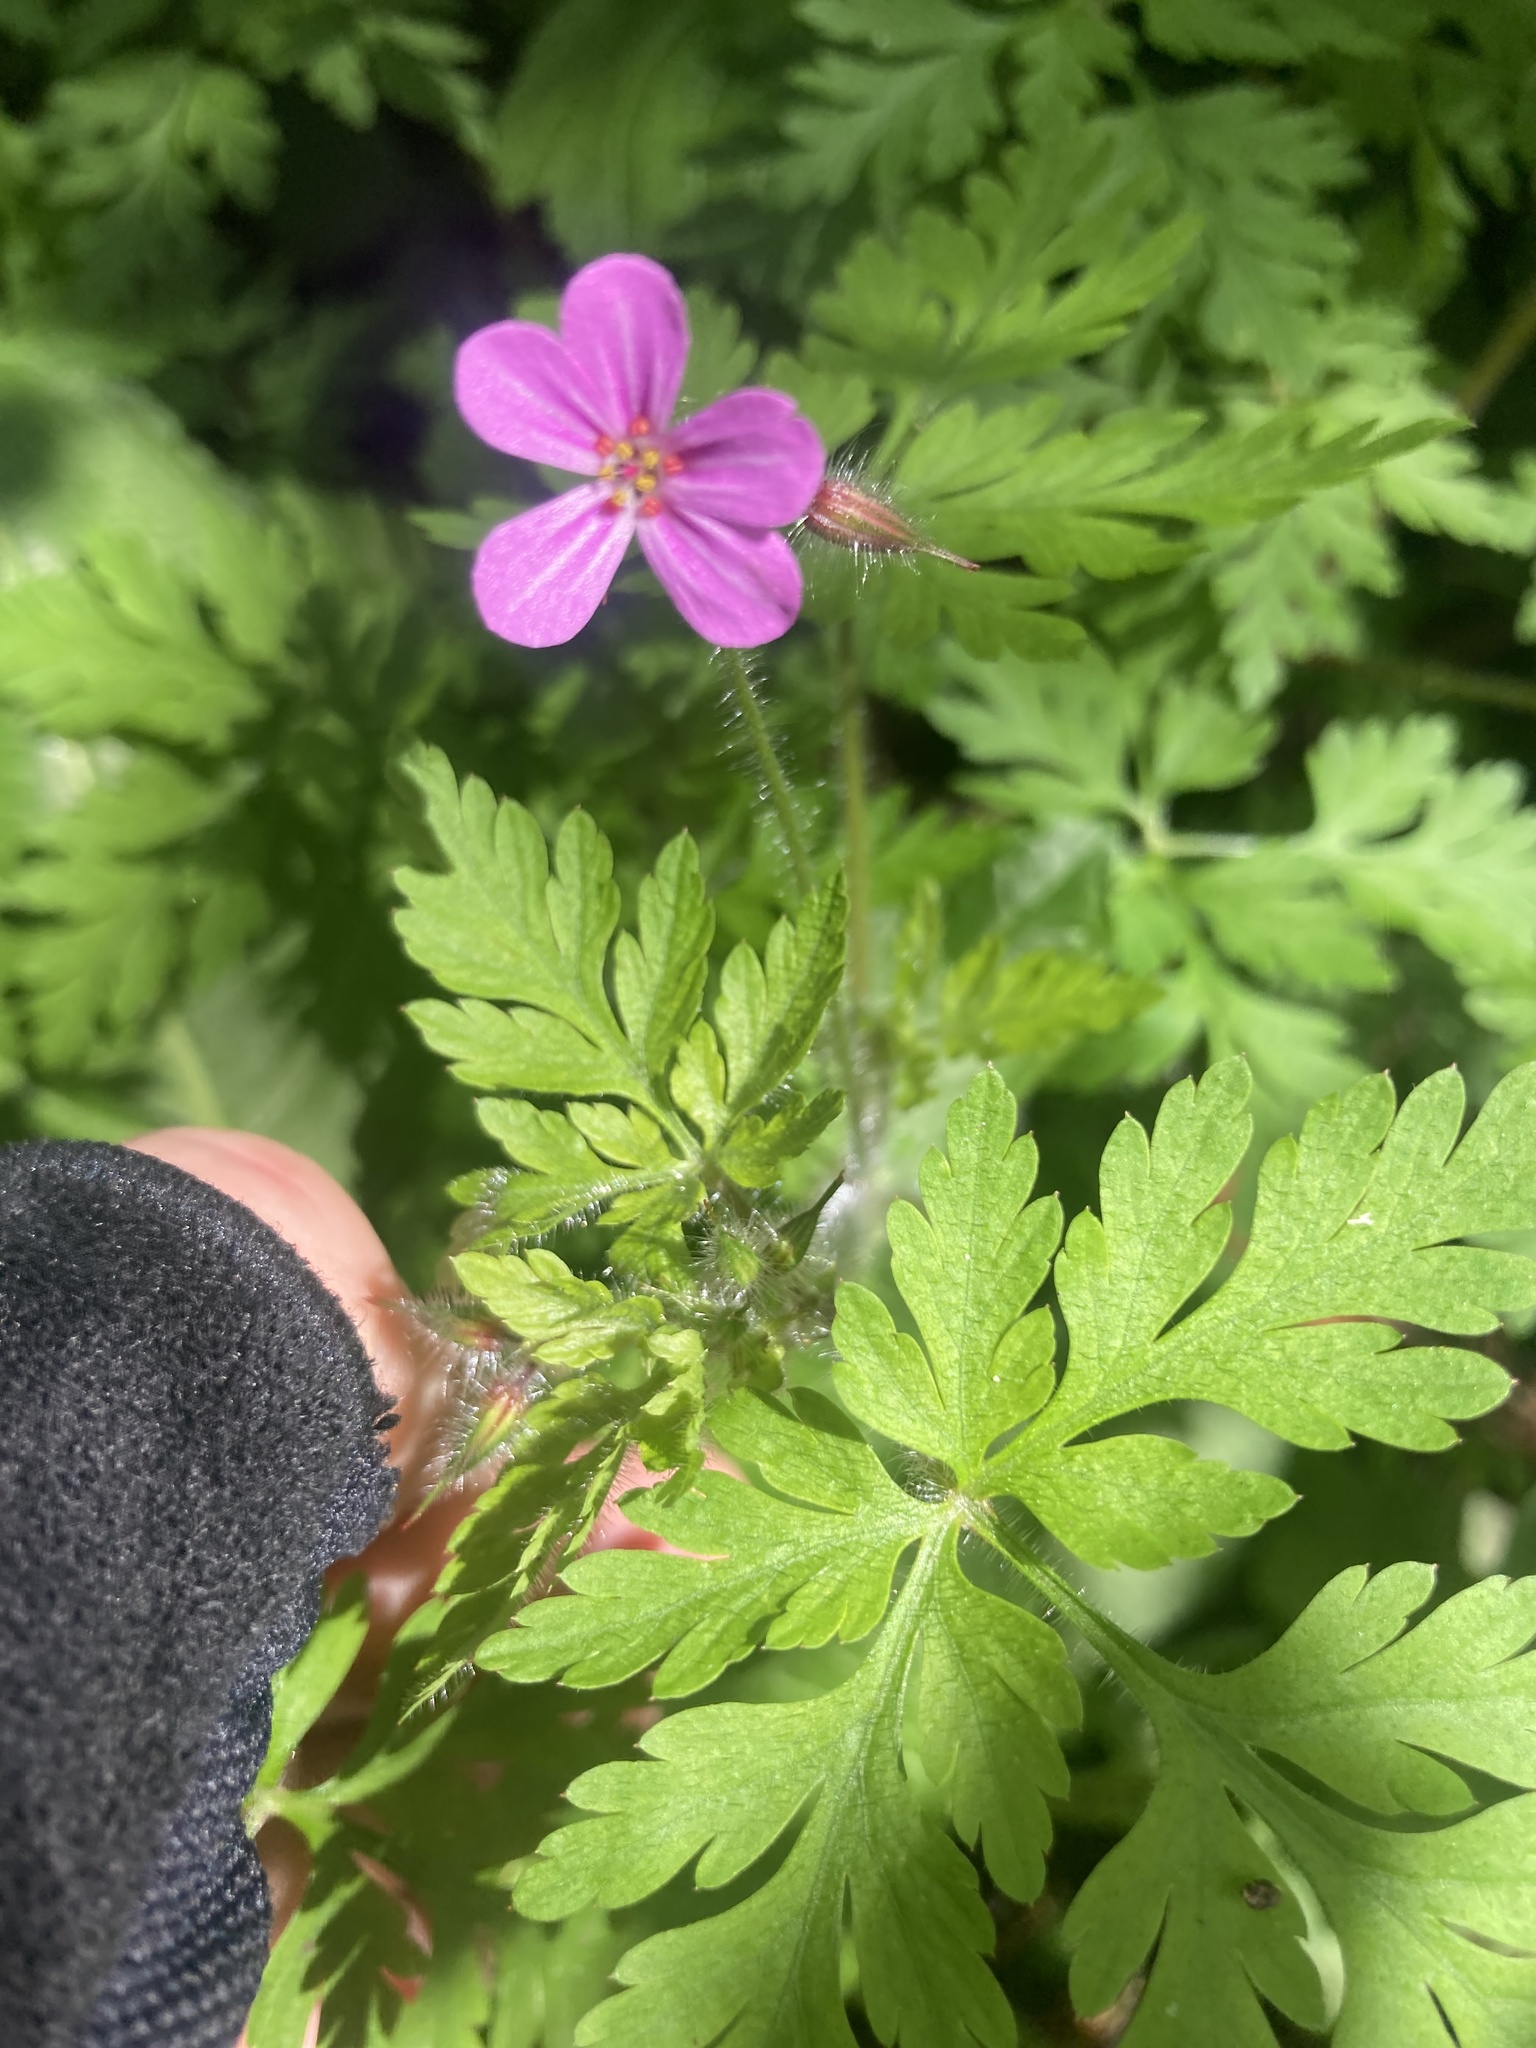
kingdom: Plantae
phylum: Tracheophyta
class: Magnoliopsida
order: Geraniales
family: Geraniaceae
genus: Geranium
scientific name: Geranium robertianum
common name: Herb-robert
